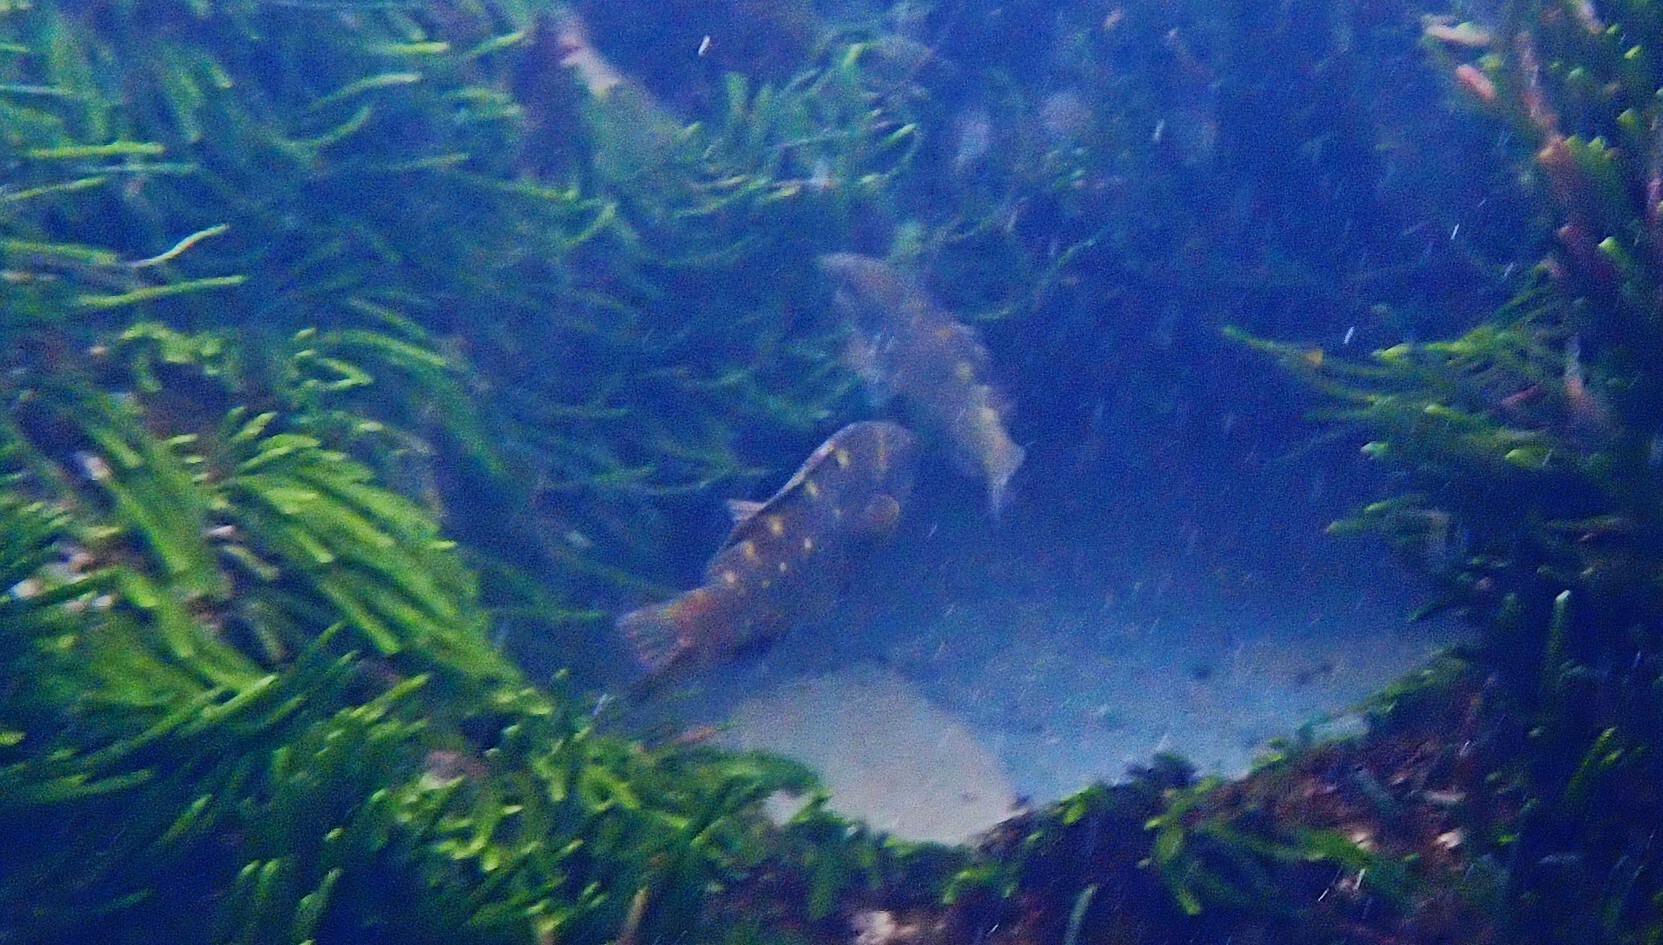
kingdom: Animalia
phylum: Chordata
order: Perciformes
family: Labridae
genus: Notolabrus
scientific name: Notolabrus fucicola
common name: Banded parrotfish
